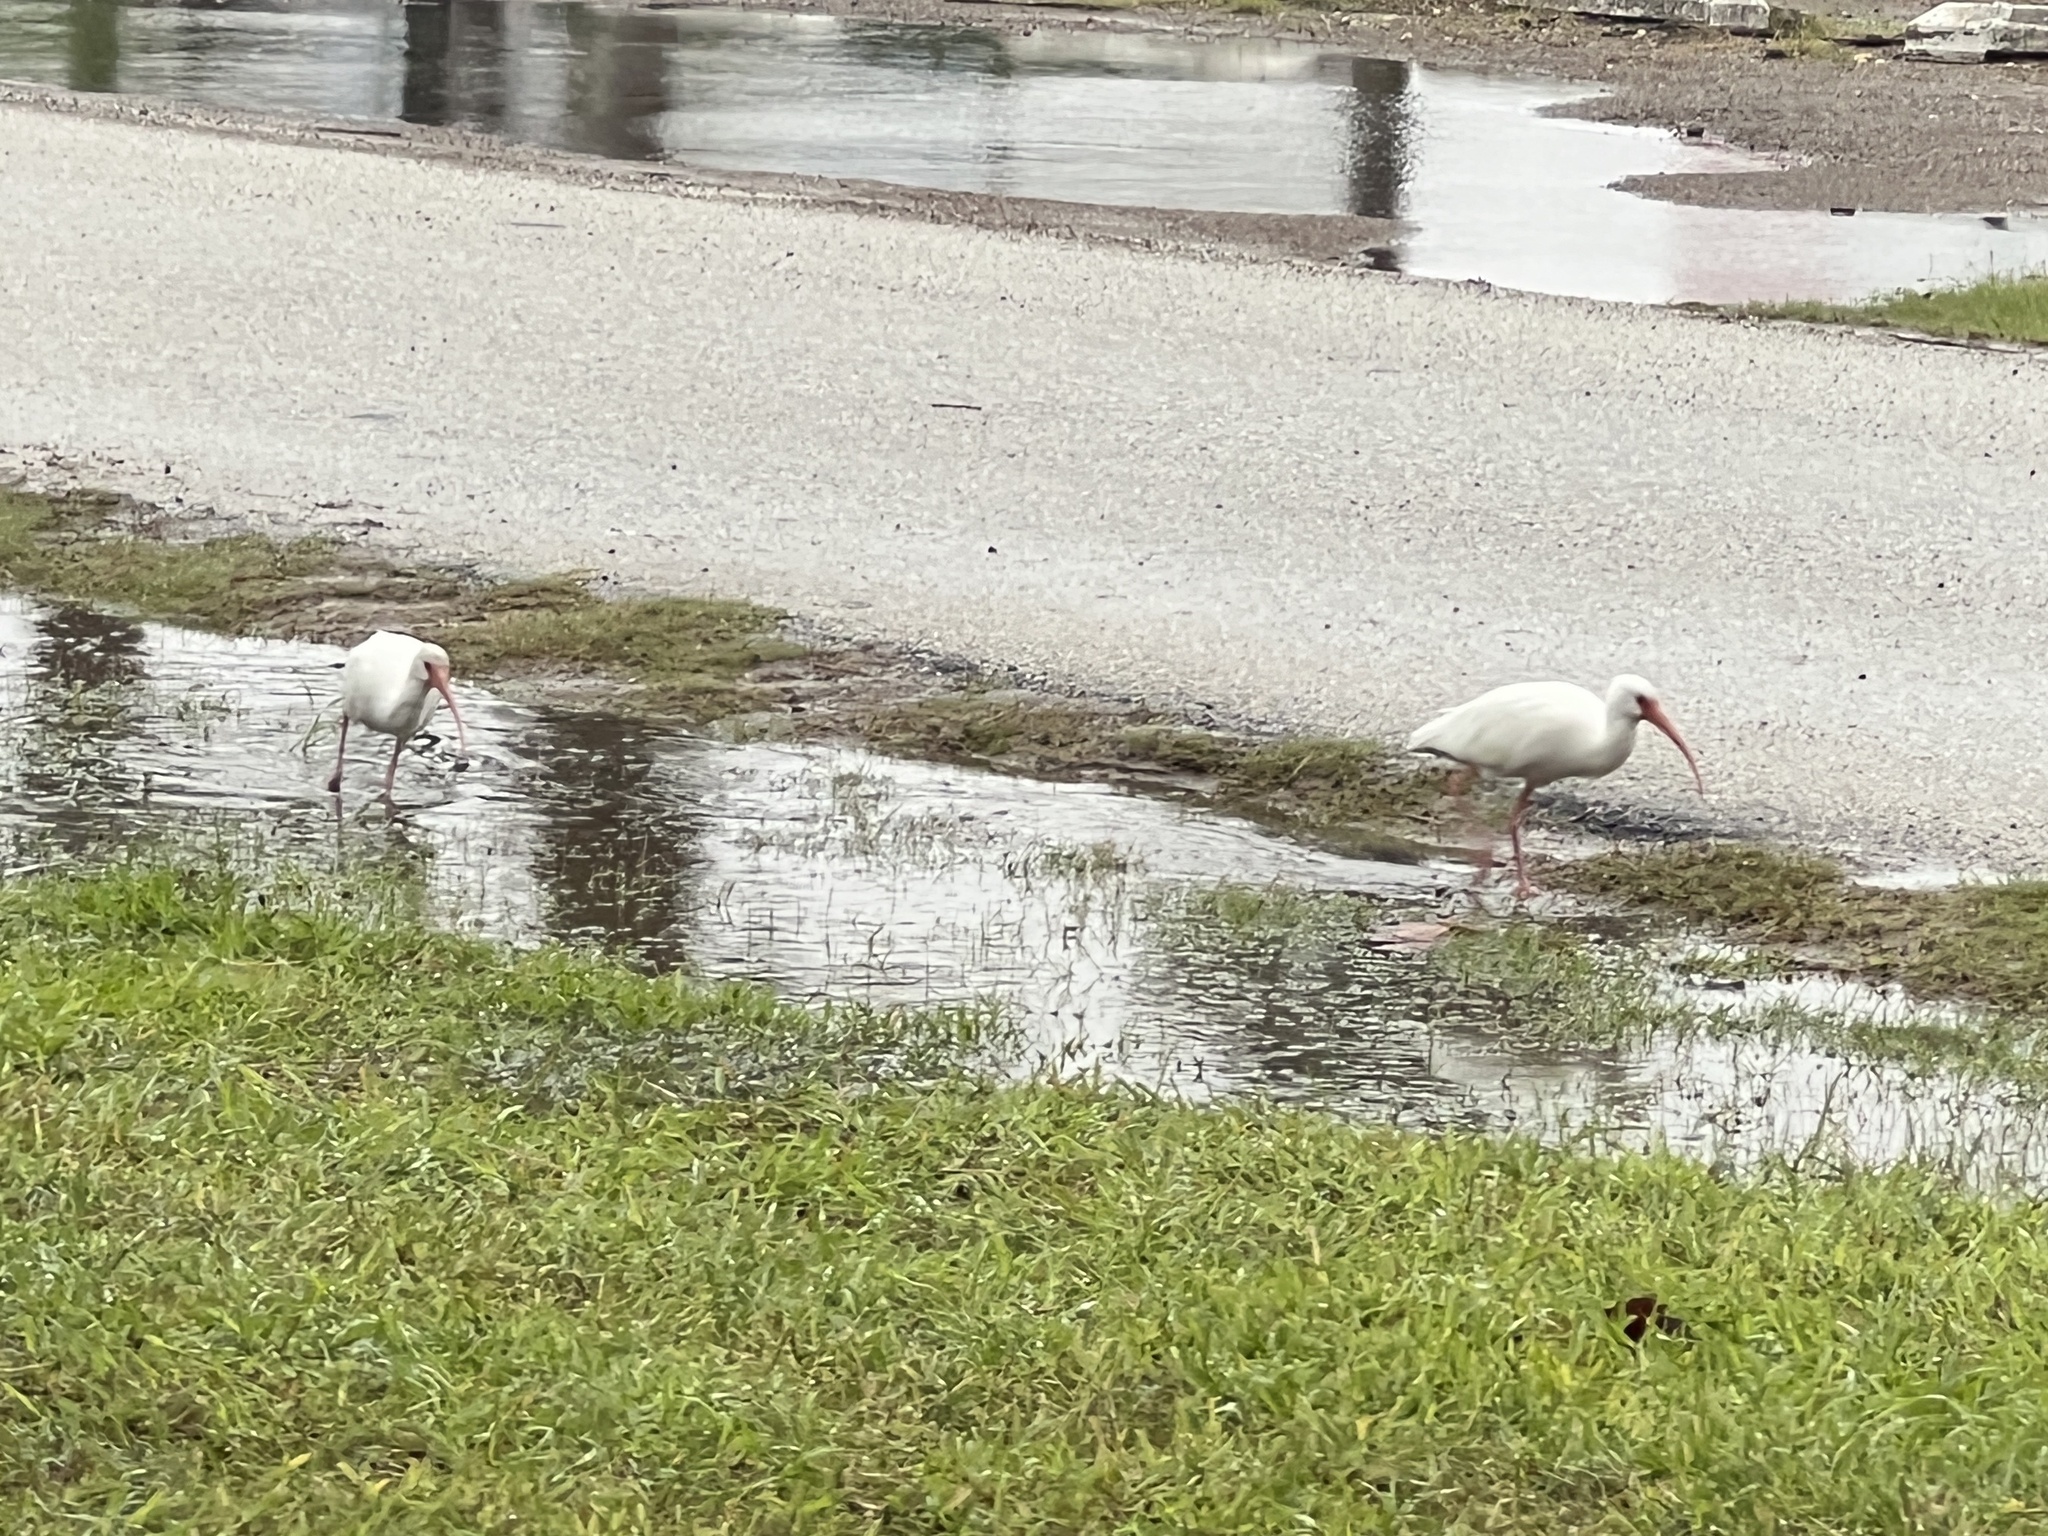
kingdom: Animalia
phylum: Chordata
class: Aves
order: Pelecaniformes
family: Threskiornithidae
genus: Eudocimus
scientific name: Eudocimus albus
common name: White ibis
